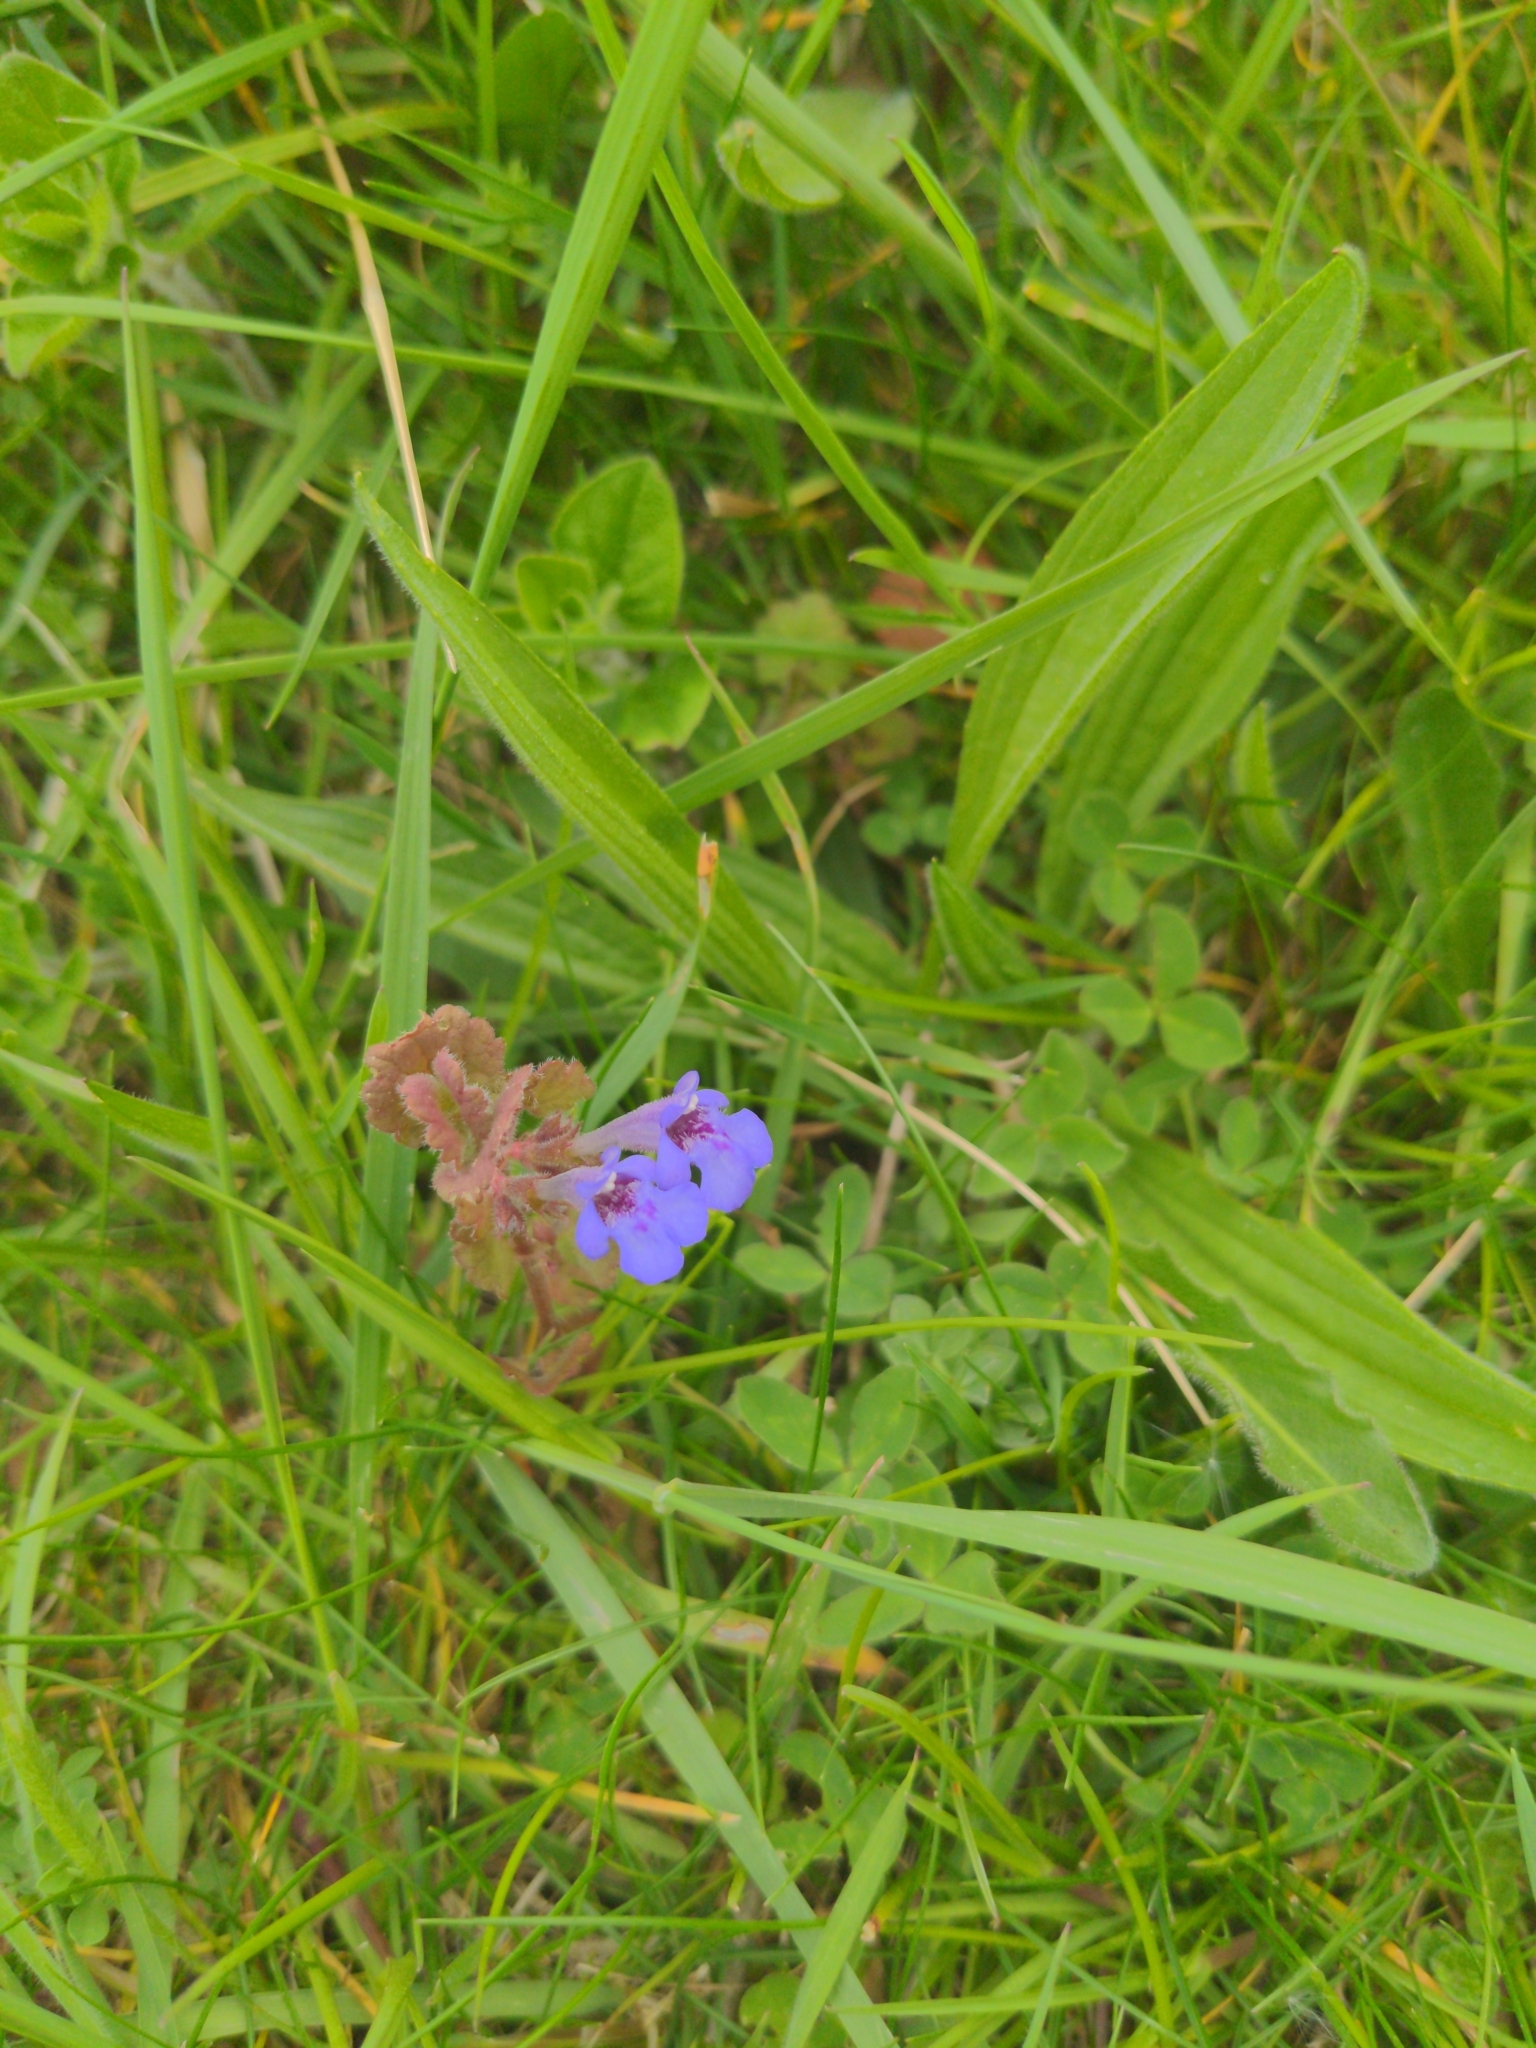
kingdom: Plantae
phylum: Tracheophyta
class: Magnoliopsida
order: Lamiales
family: Lamiaceae
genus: Glechoma
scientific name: Glechoma hederacea
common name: Ground ivy
